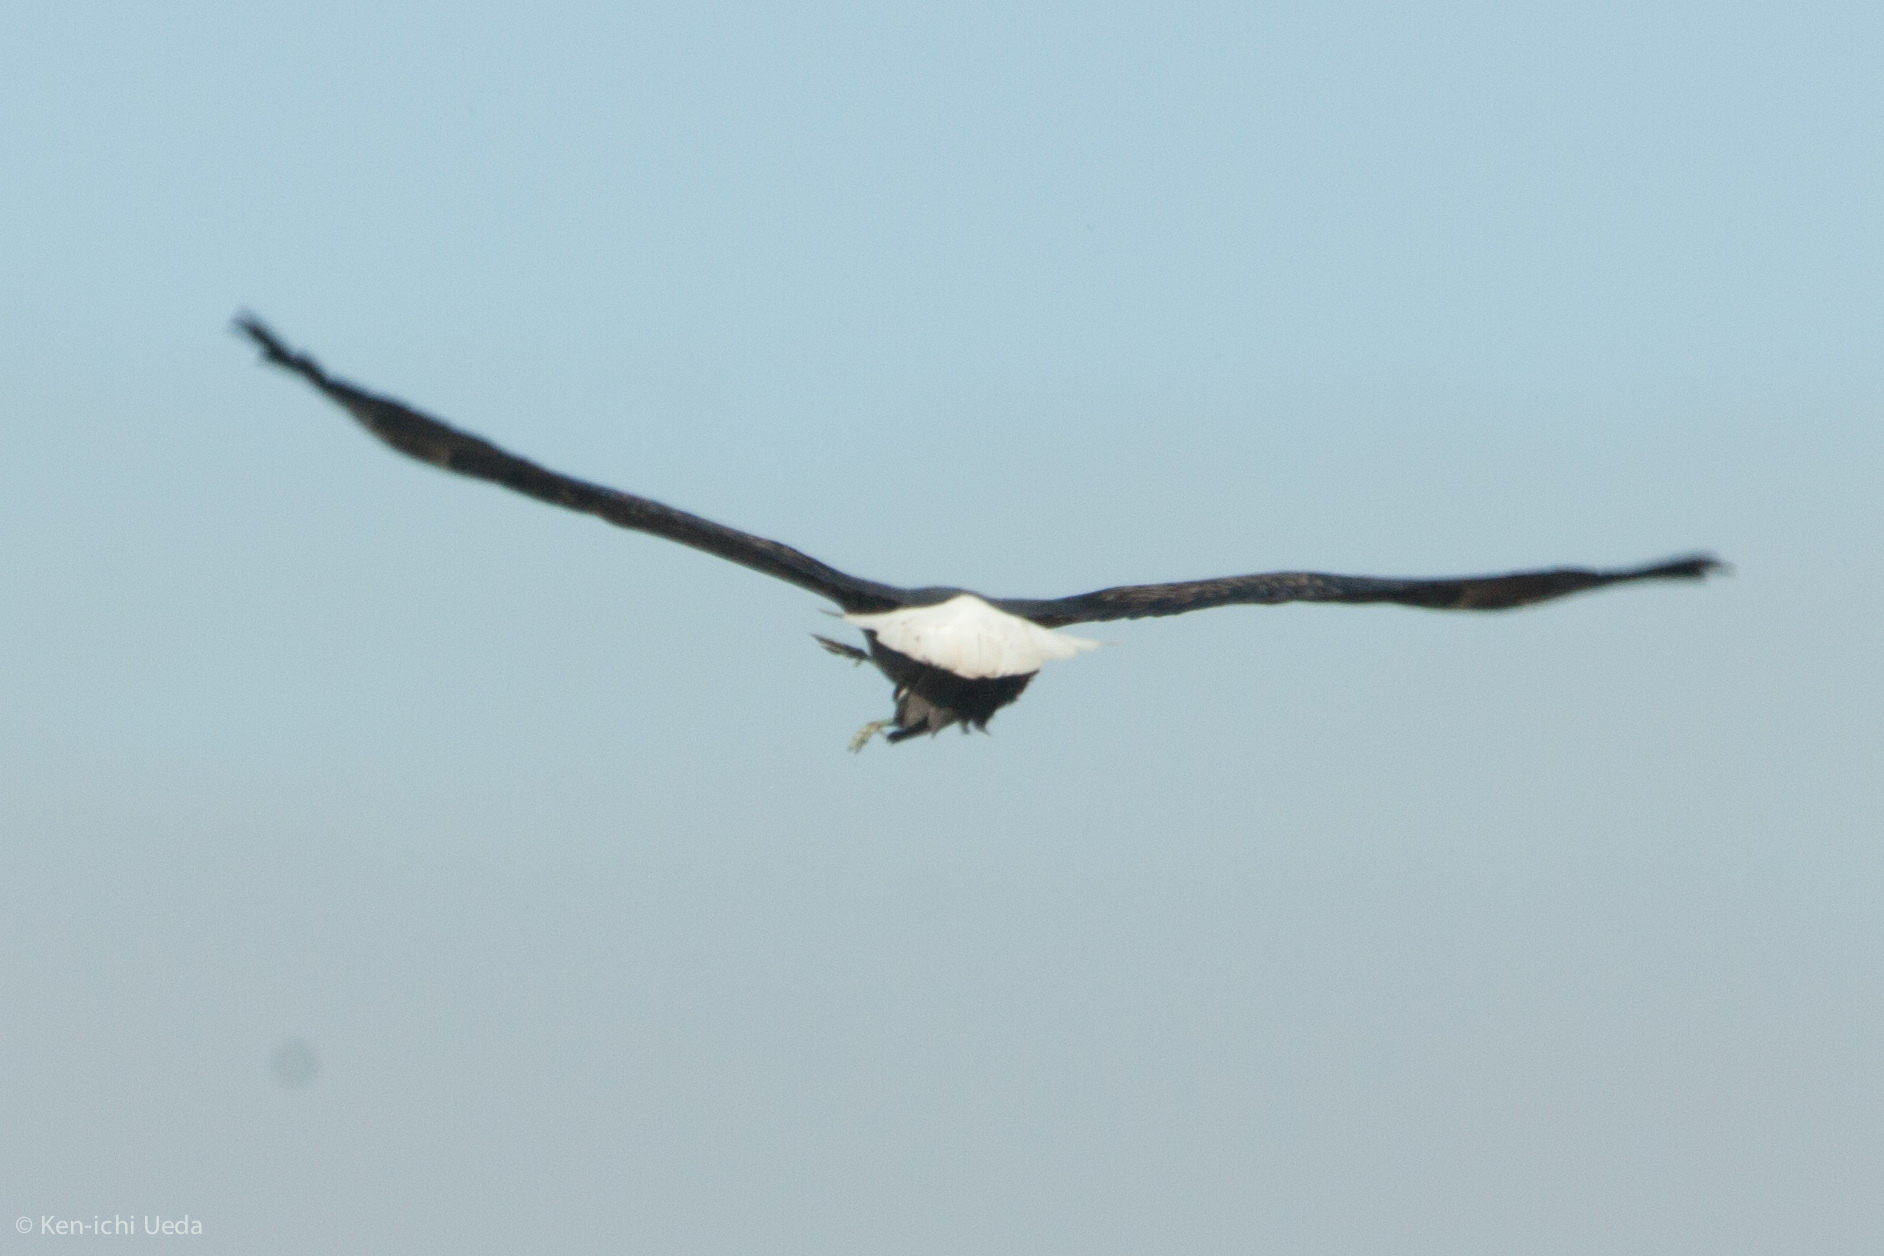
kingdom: Animalia
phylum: Chordata
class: Aves
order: Accipitriformes
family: Accipitridae
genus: Haliaeetus
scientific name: Haliaeetus leucocephalus
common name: Bald eagle
